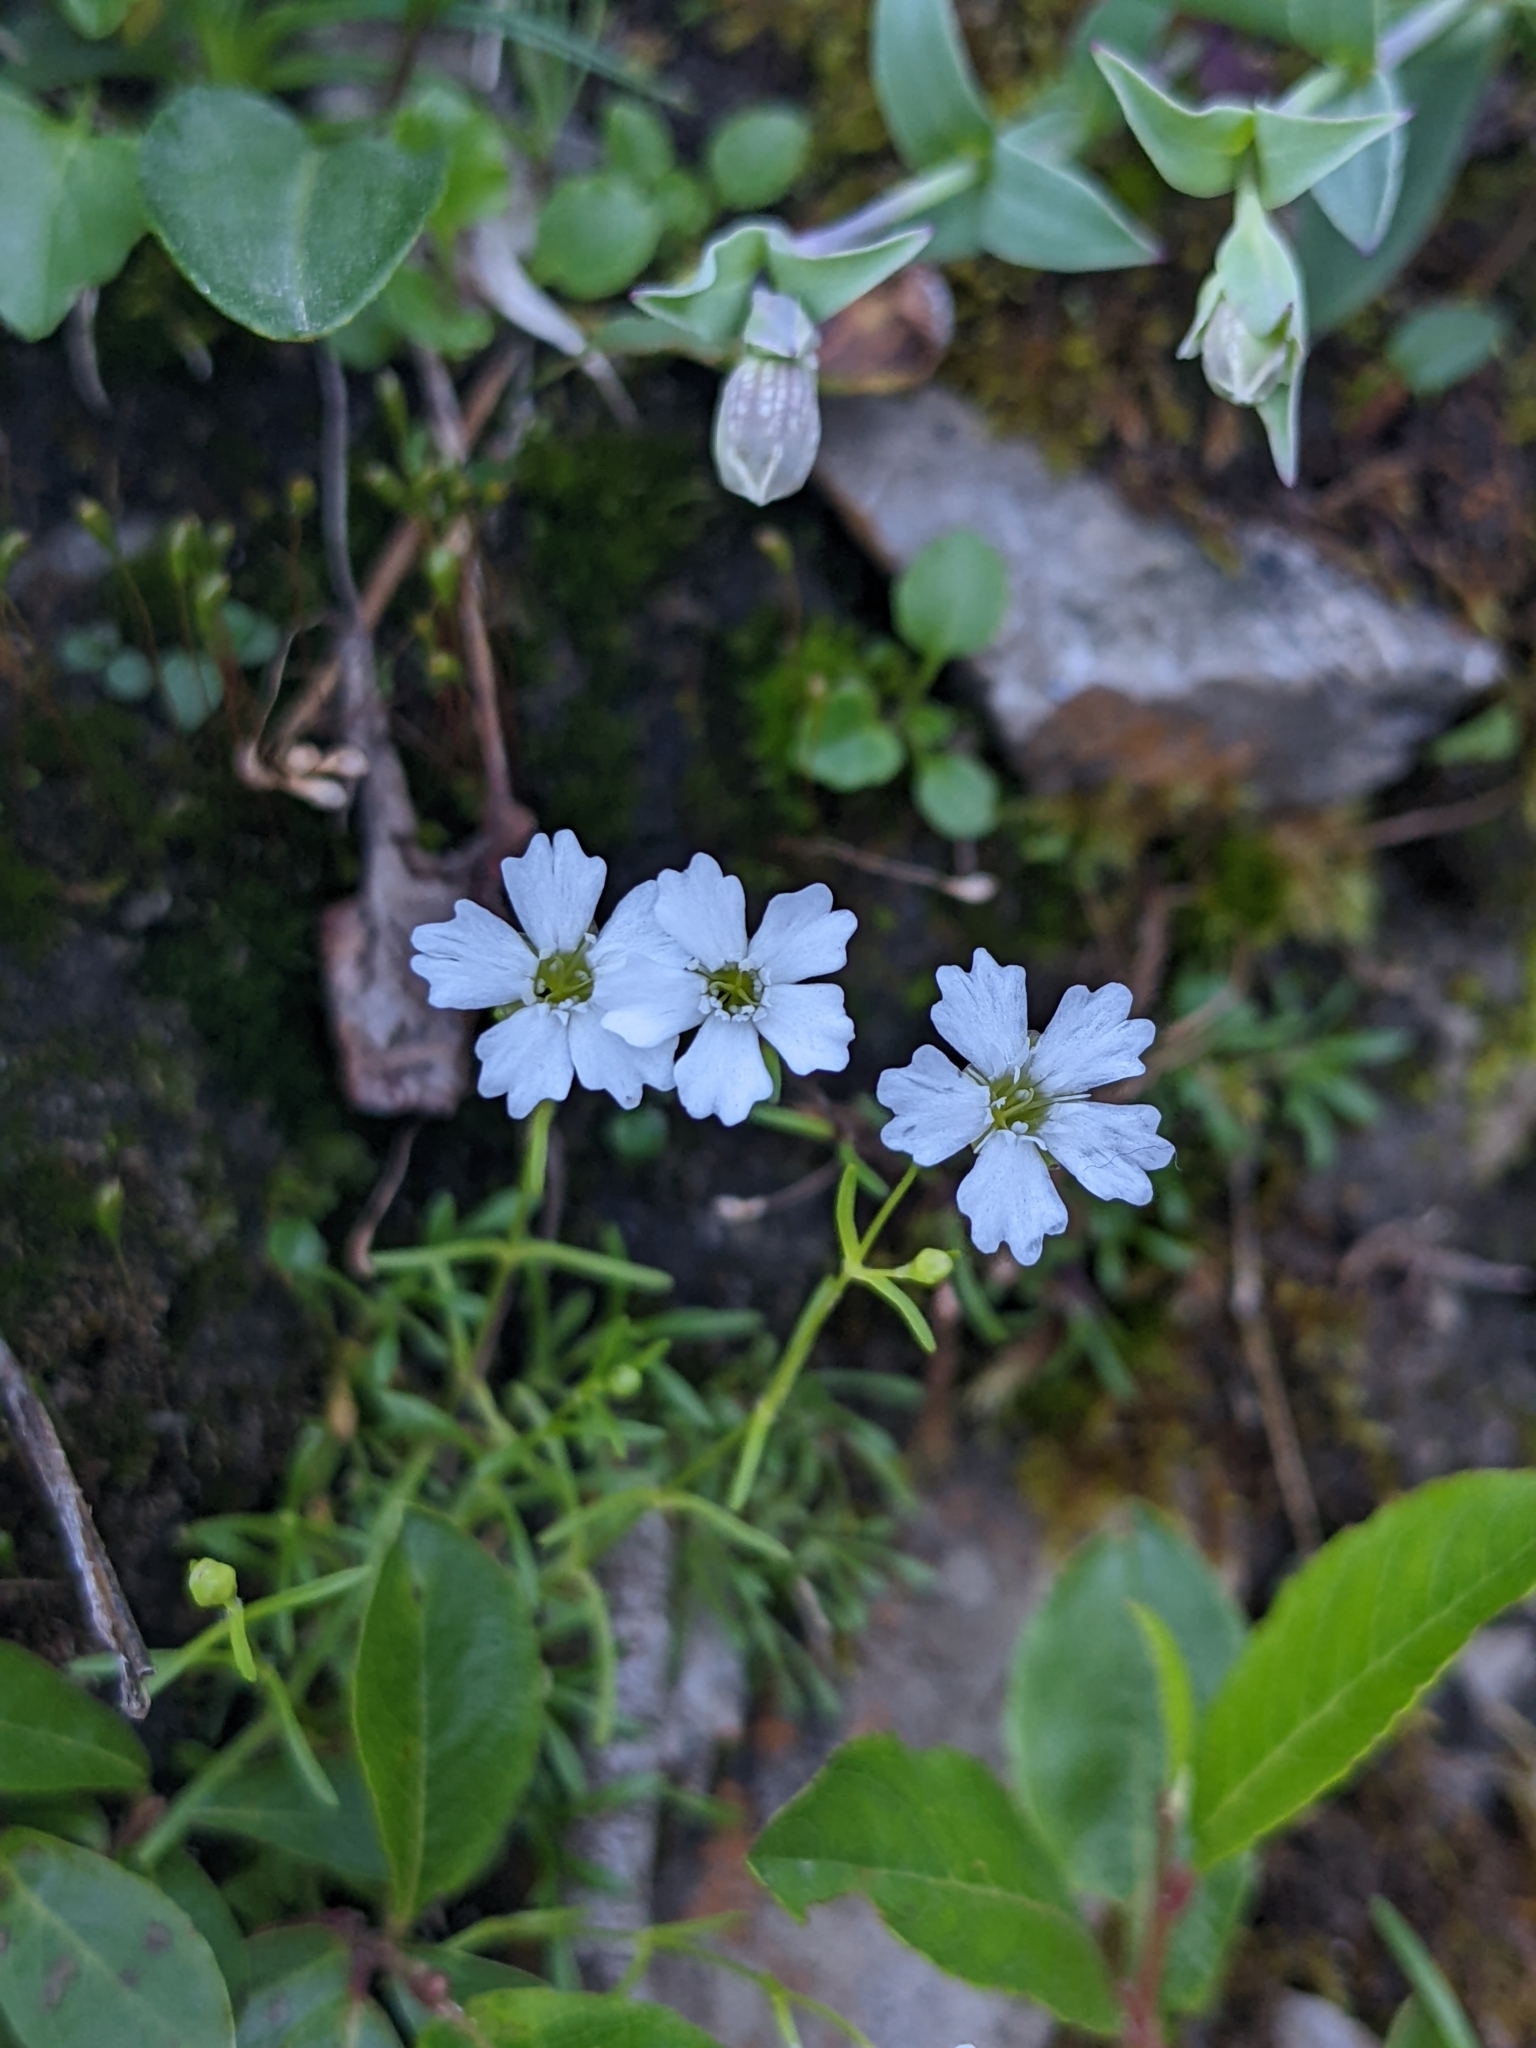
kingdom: Plantae
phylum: Tracheophyta
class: Magnoliopsida
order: Caryophyllales
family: Caryophyllaceae
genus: Heliosperma
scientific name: Heliosperma pusillum
